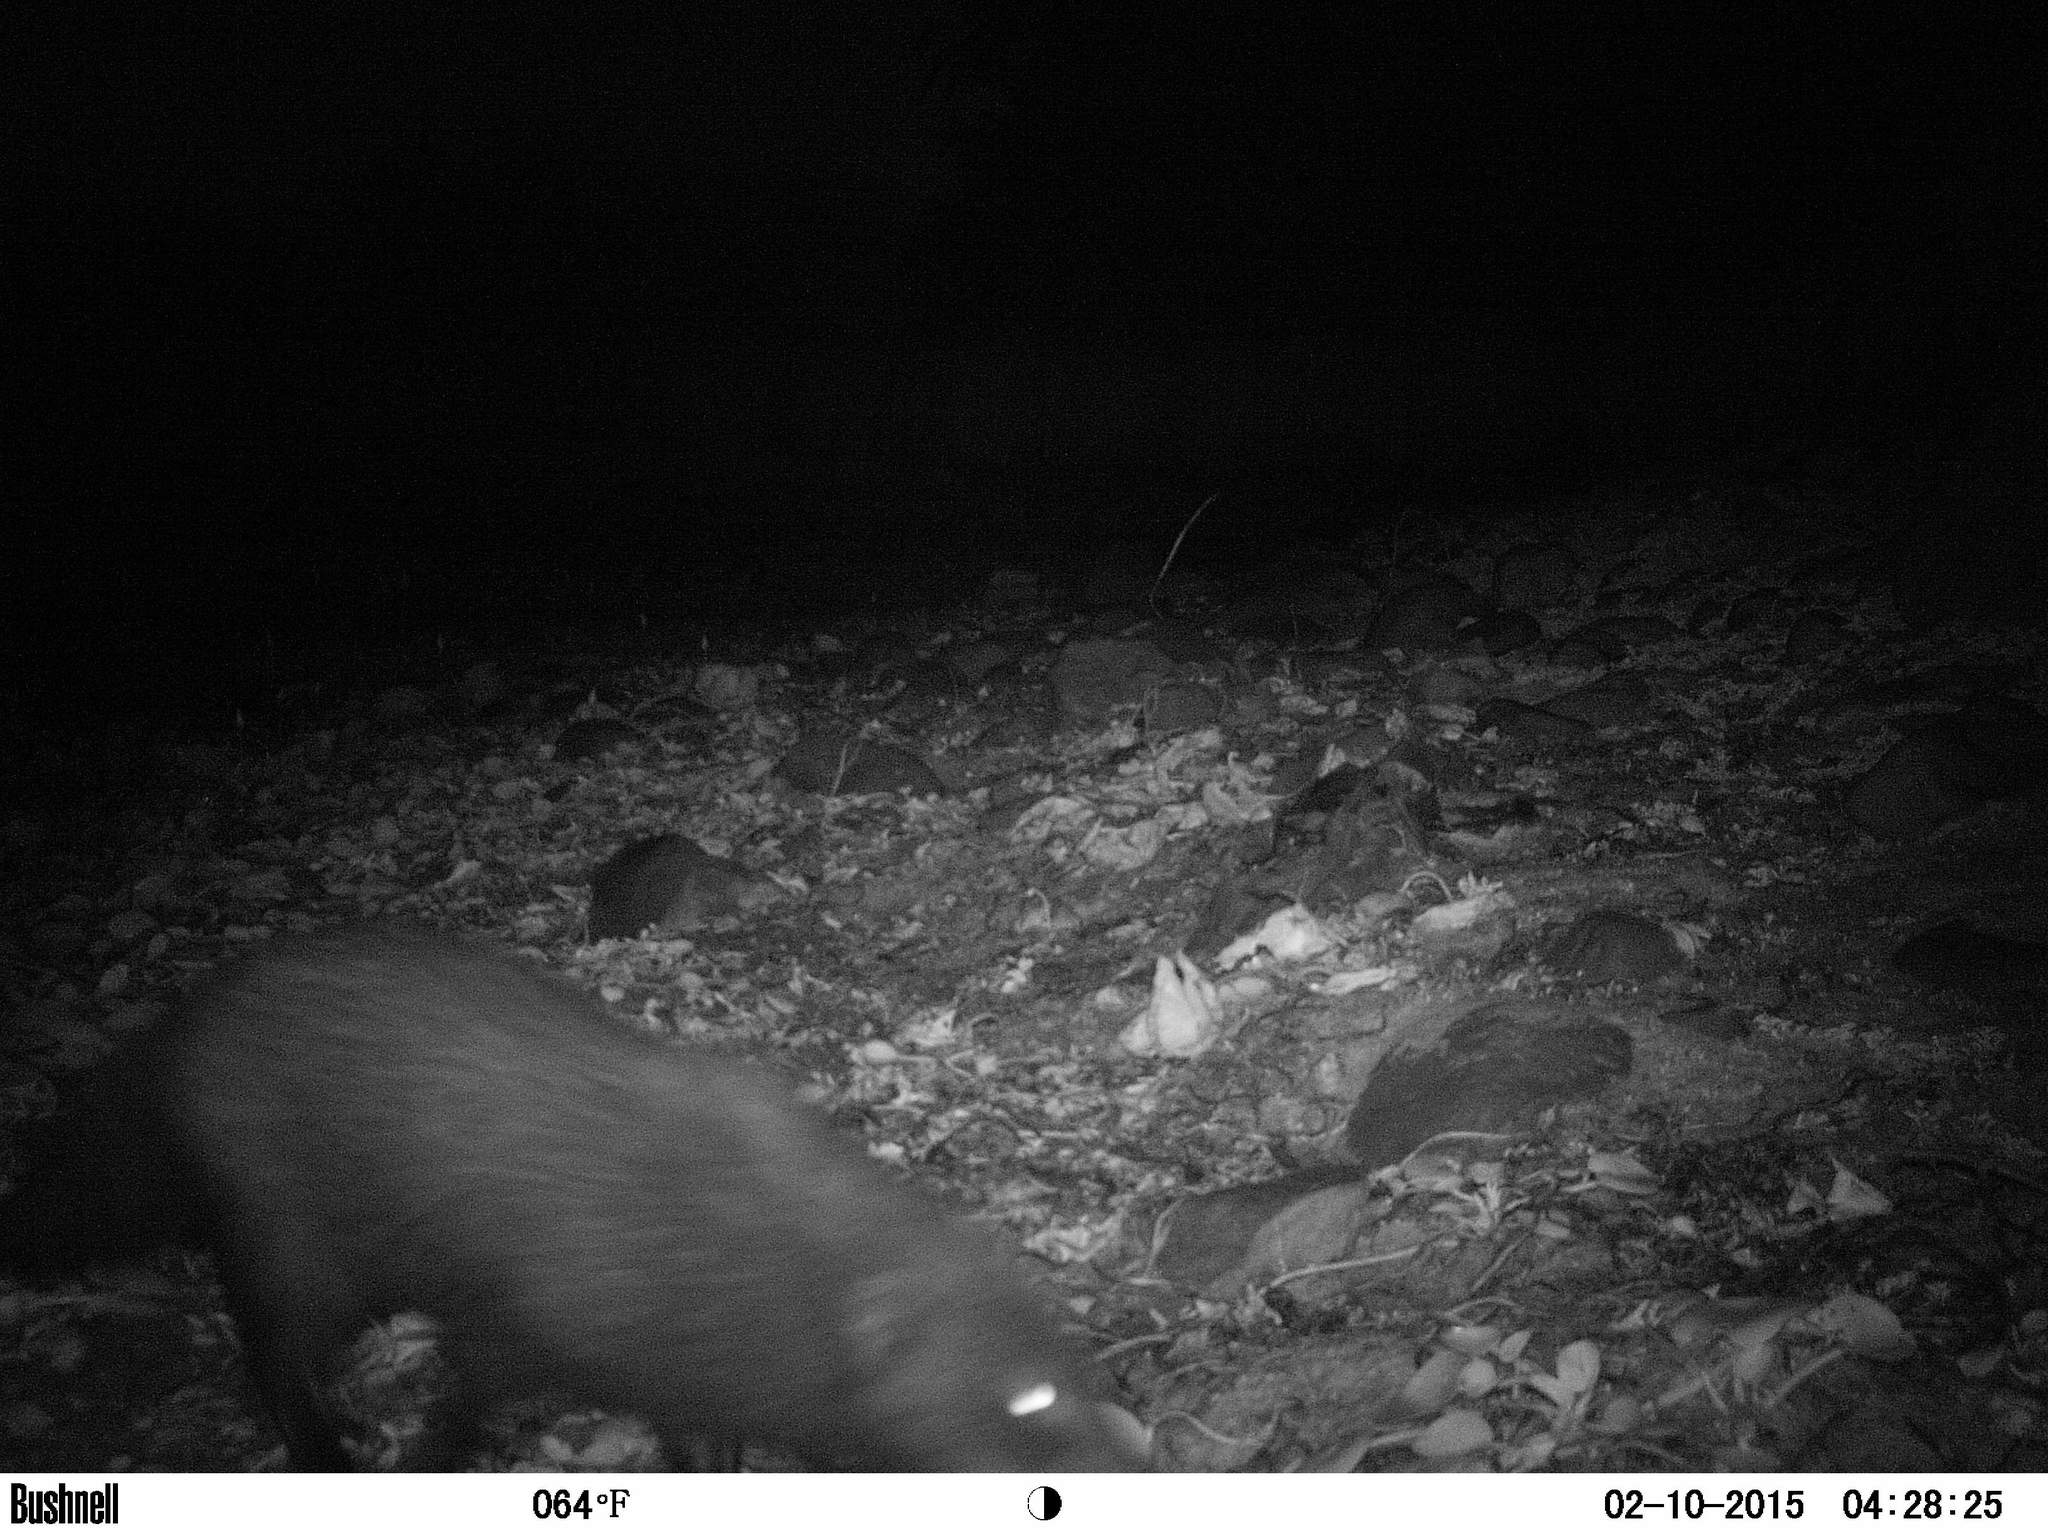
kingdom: Animalia
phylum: Chordata
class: Mammalia
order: Carnivora
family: Herpestidae
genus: Atilax
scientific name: Atilax paludinosus
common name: Marsh mongoose
